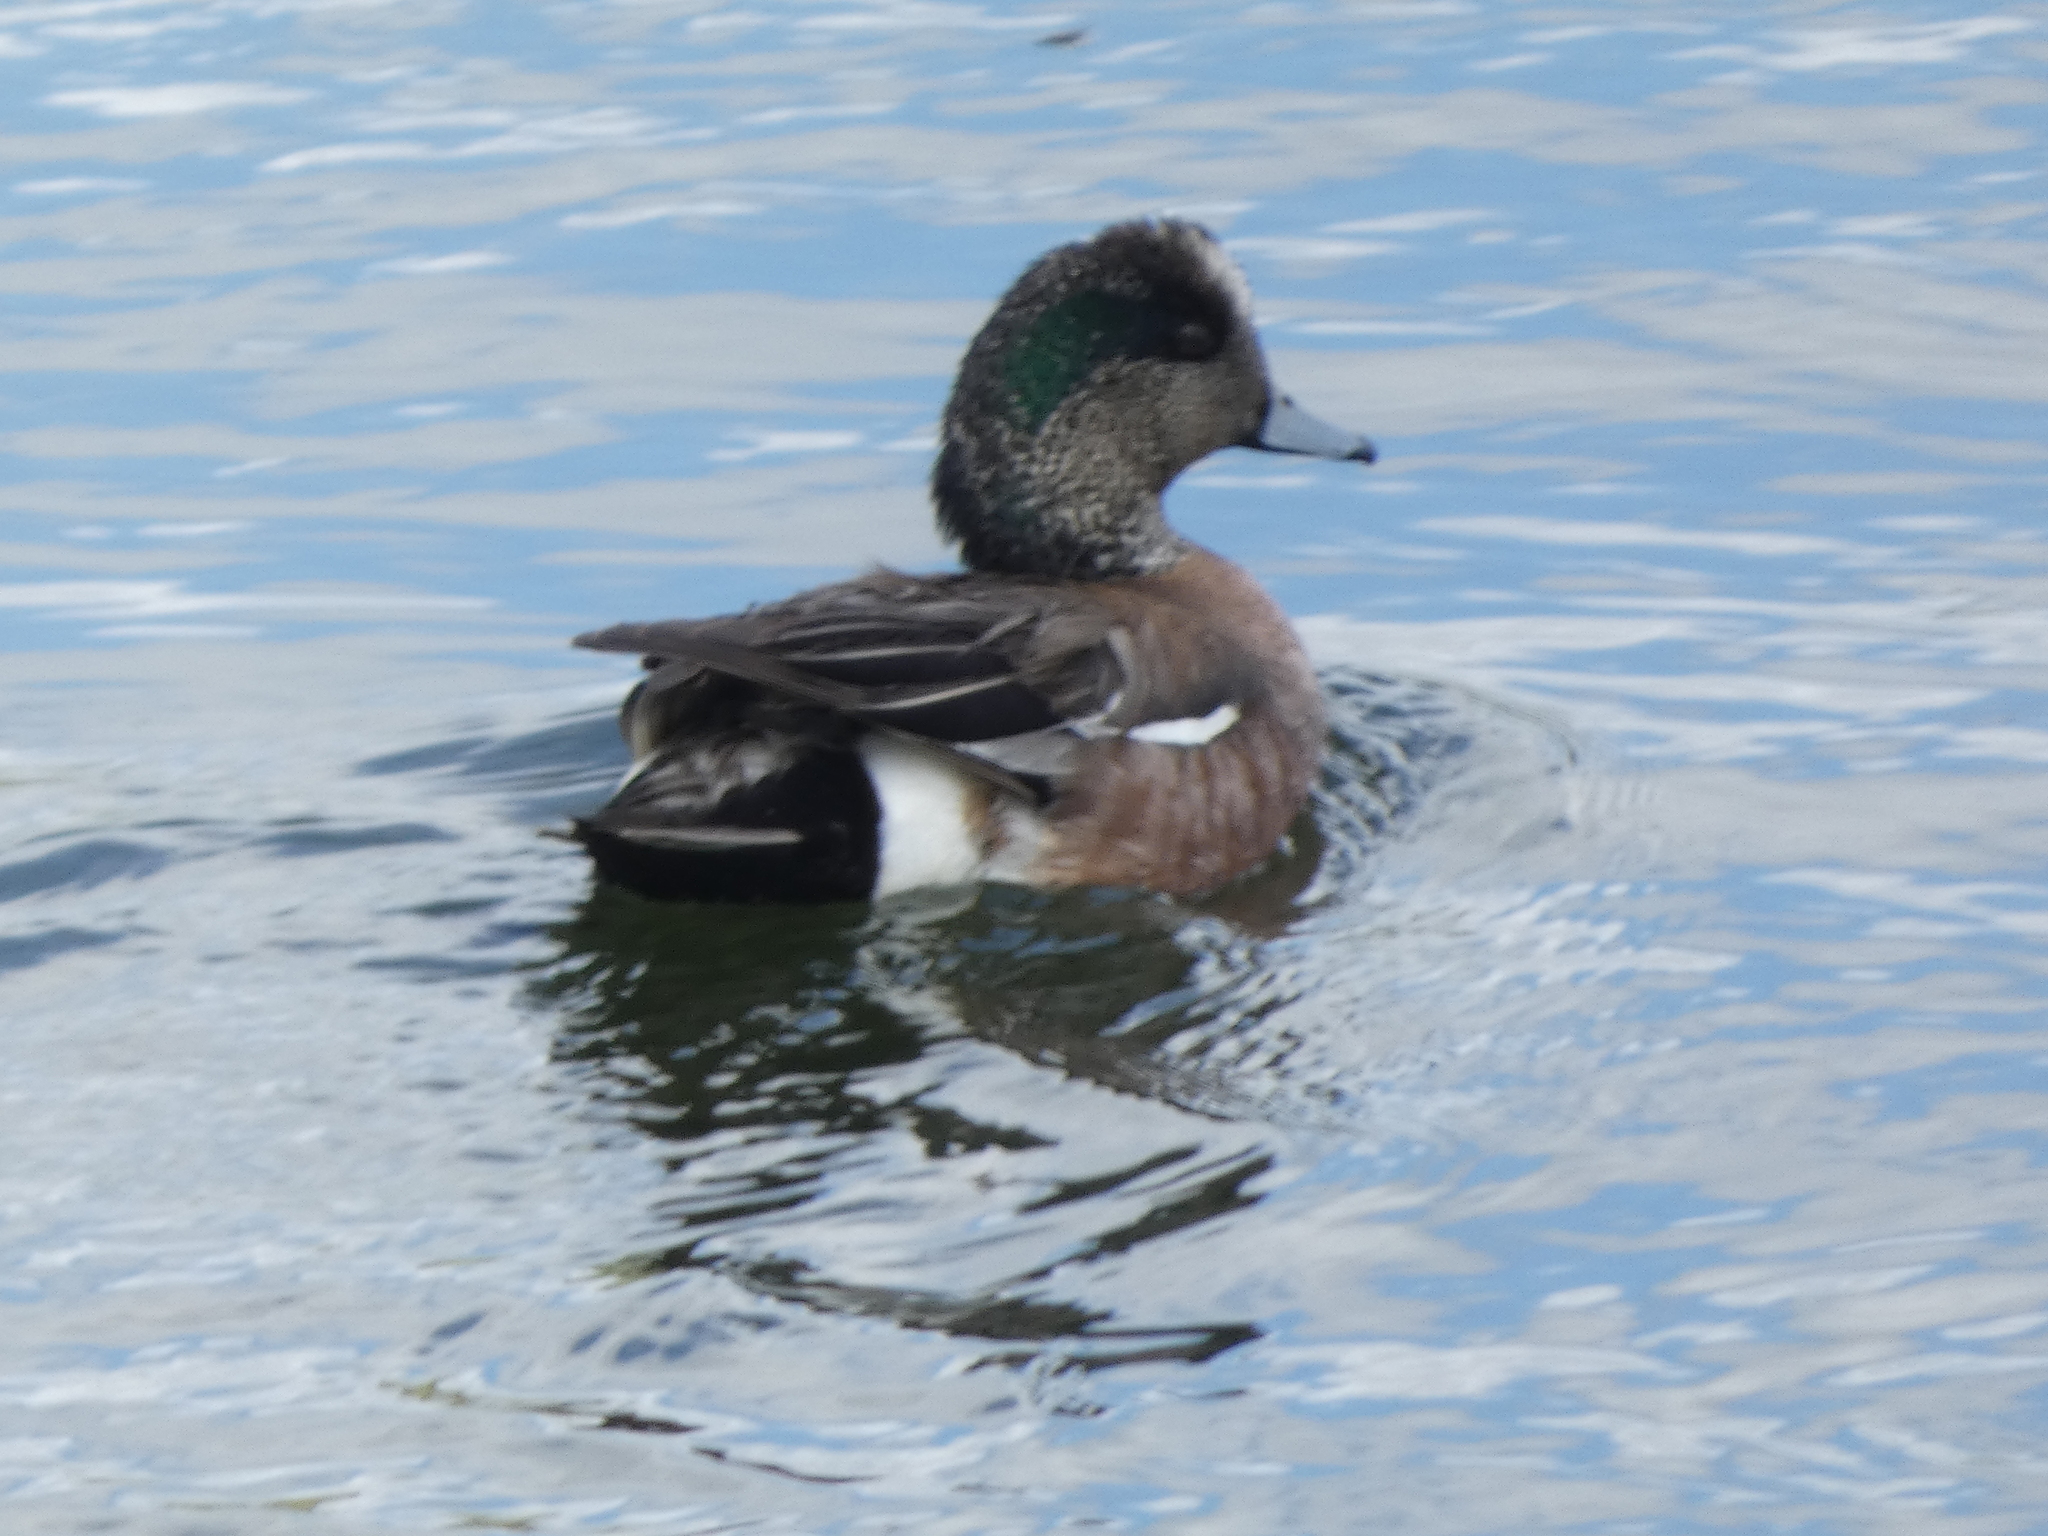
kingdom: Animalia
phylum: Chordata
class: Aves
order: Anseriformes
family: Anatidae
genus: Mareca
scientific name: Mareca americana
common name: American wigeon
